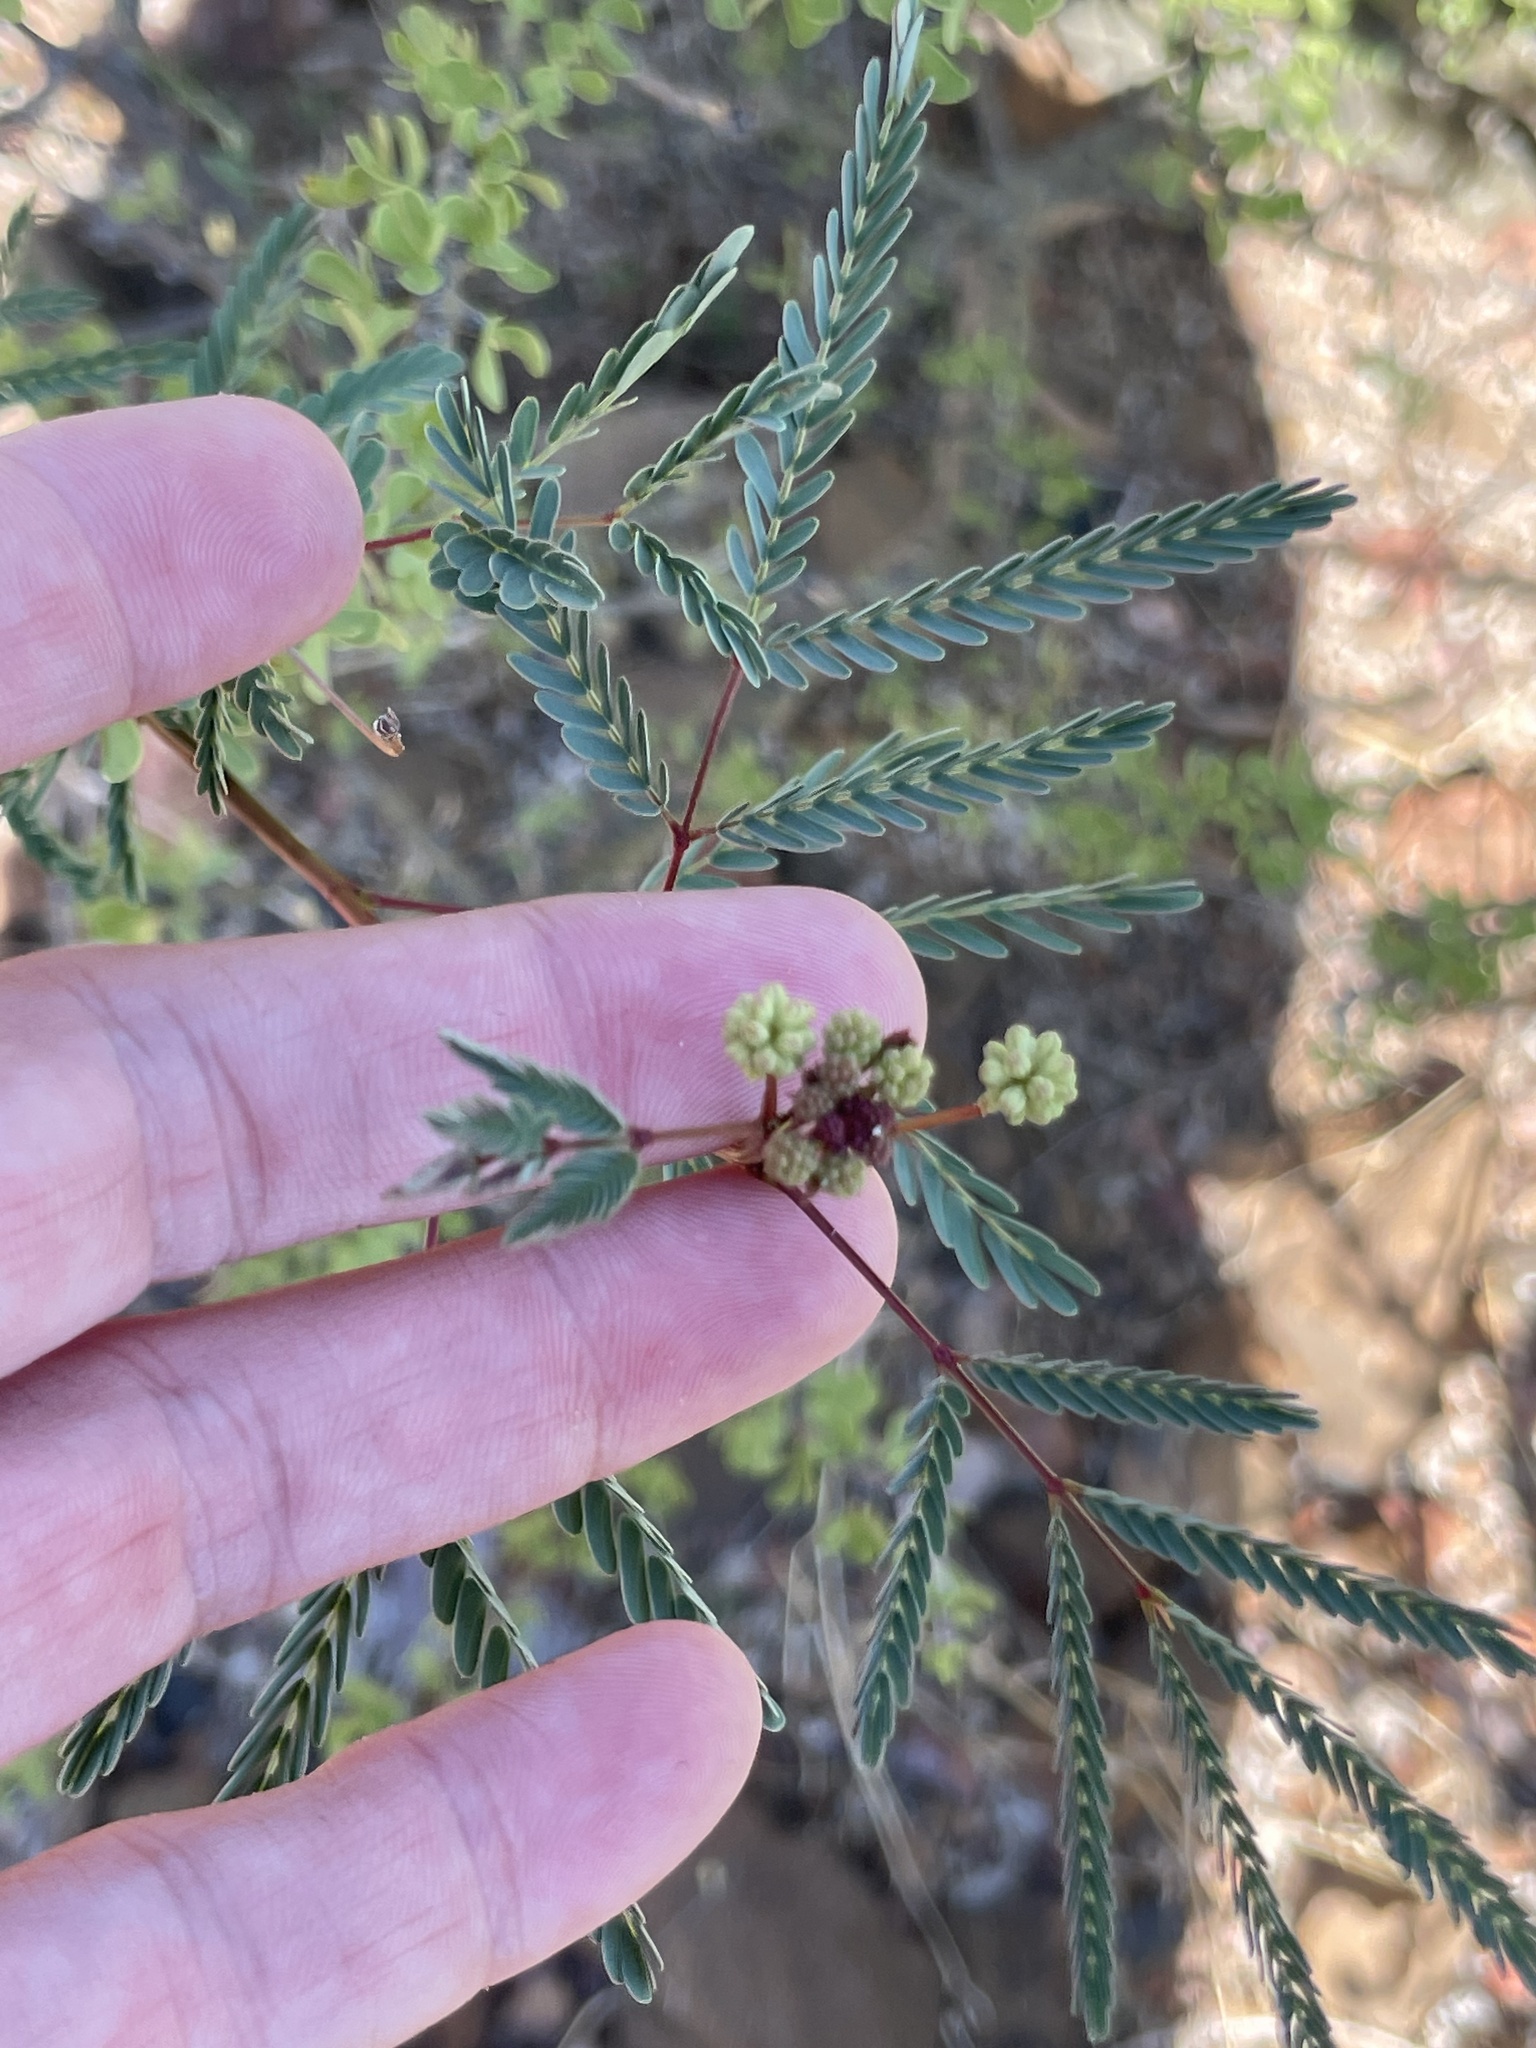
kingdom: Plantae
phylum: Tracheophyta
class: Magnoliopsida
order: Fabales
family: Fabaceae
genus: Desmanthus
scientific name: Desmanthus fruticosus
